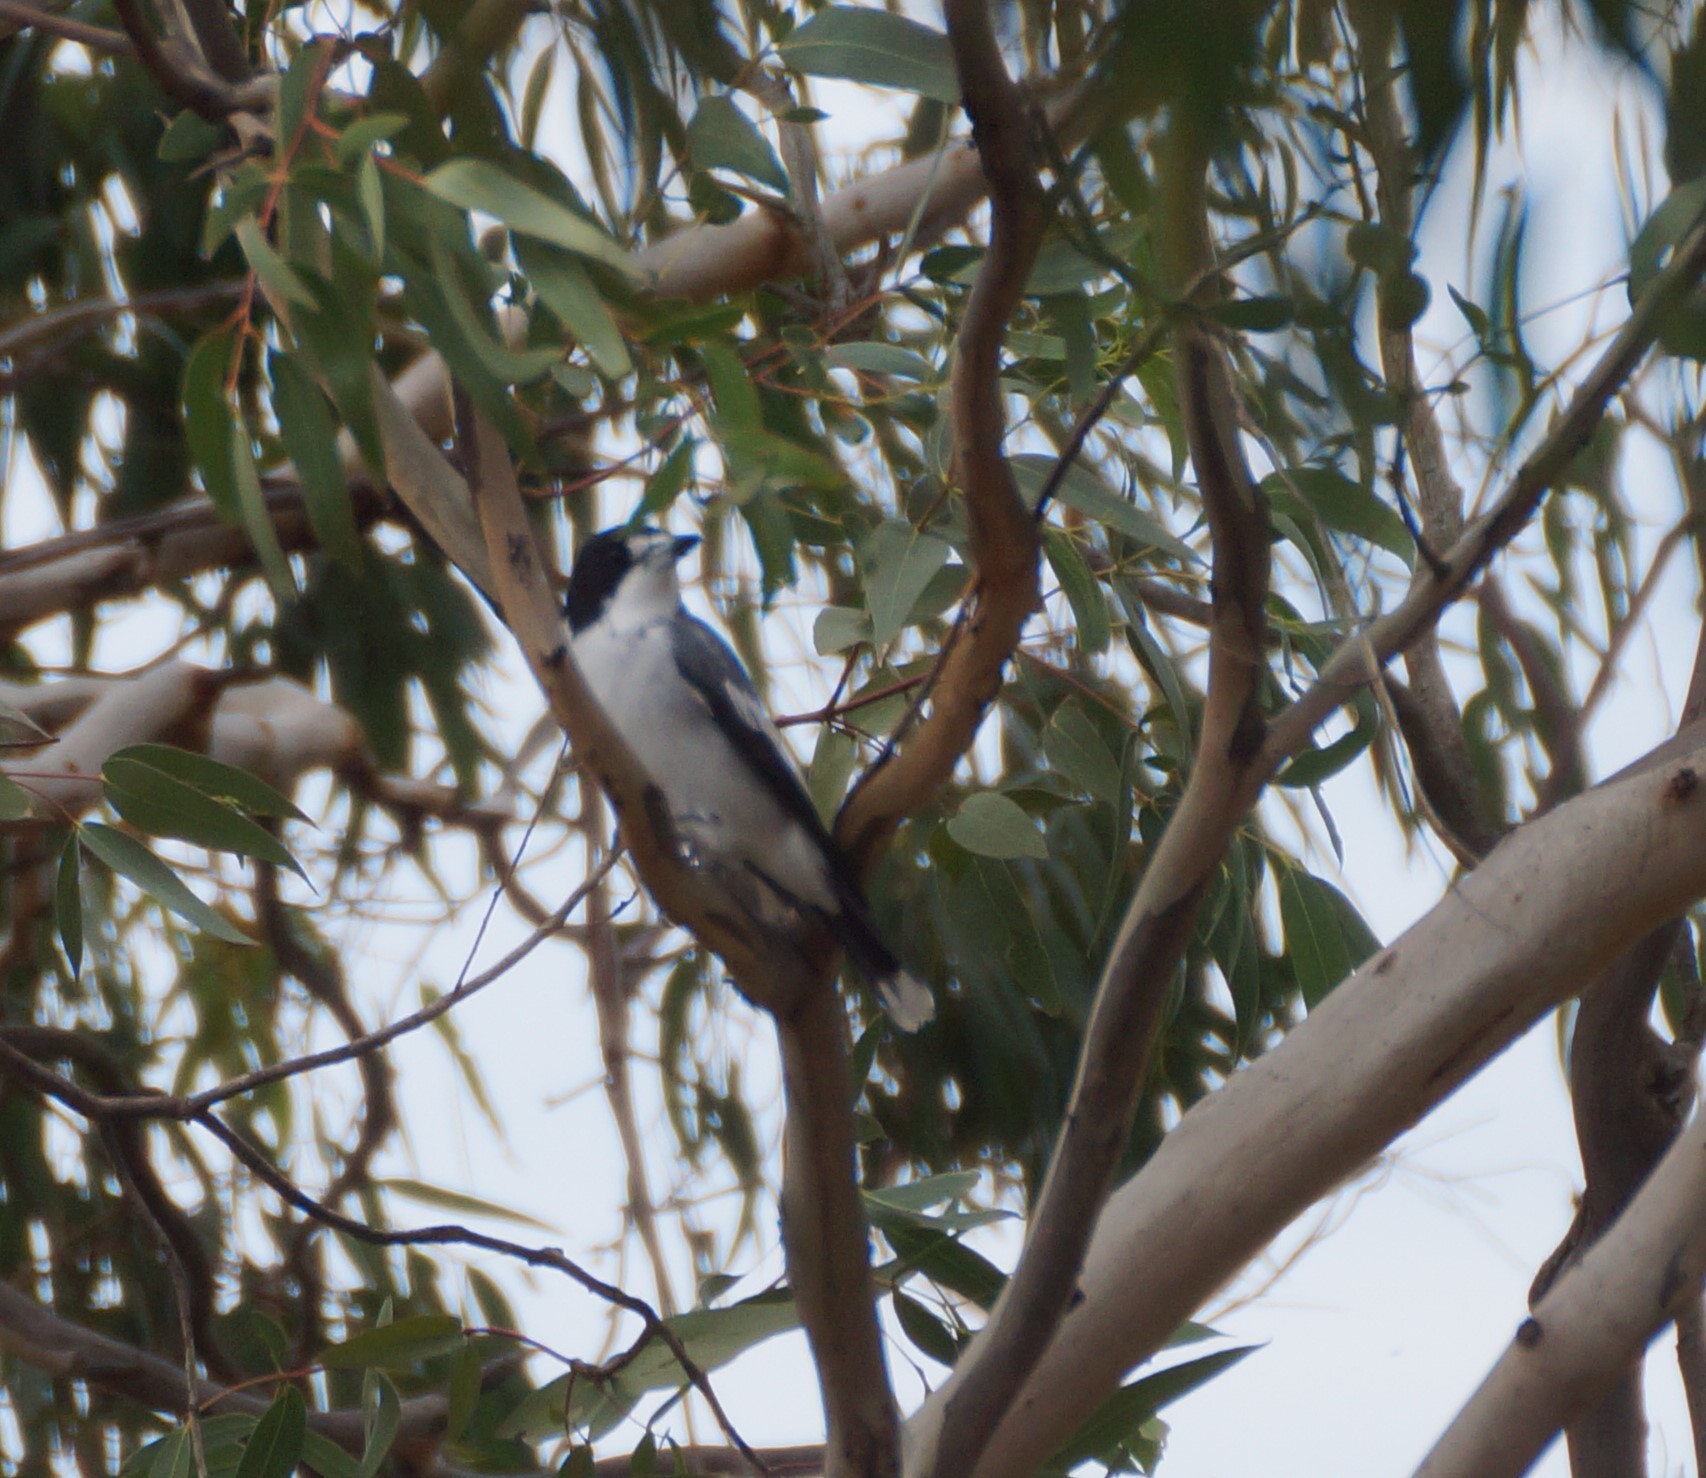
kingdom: Animalia
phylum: Chordata
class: Aves
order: Passeriformes
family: Cracticidae
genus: Cracticus
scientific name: Cracticus torquatus
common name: Grey butcherbird
